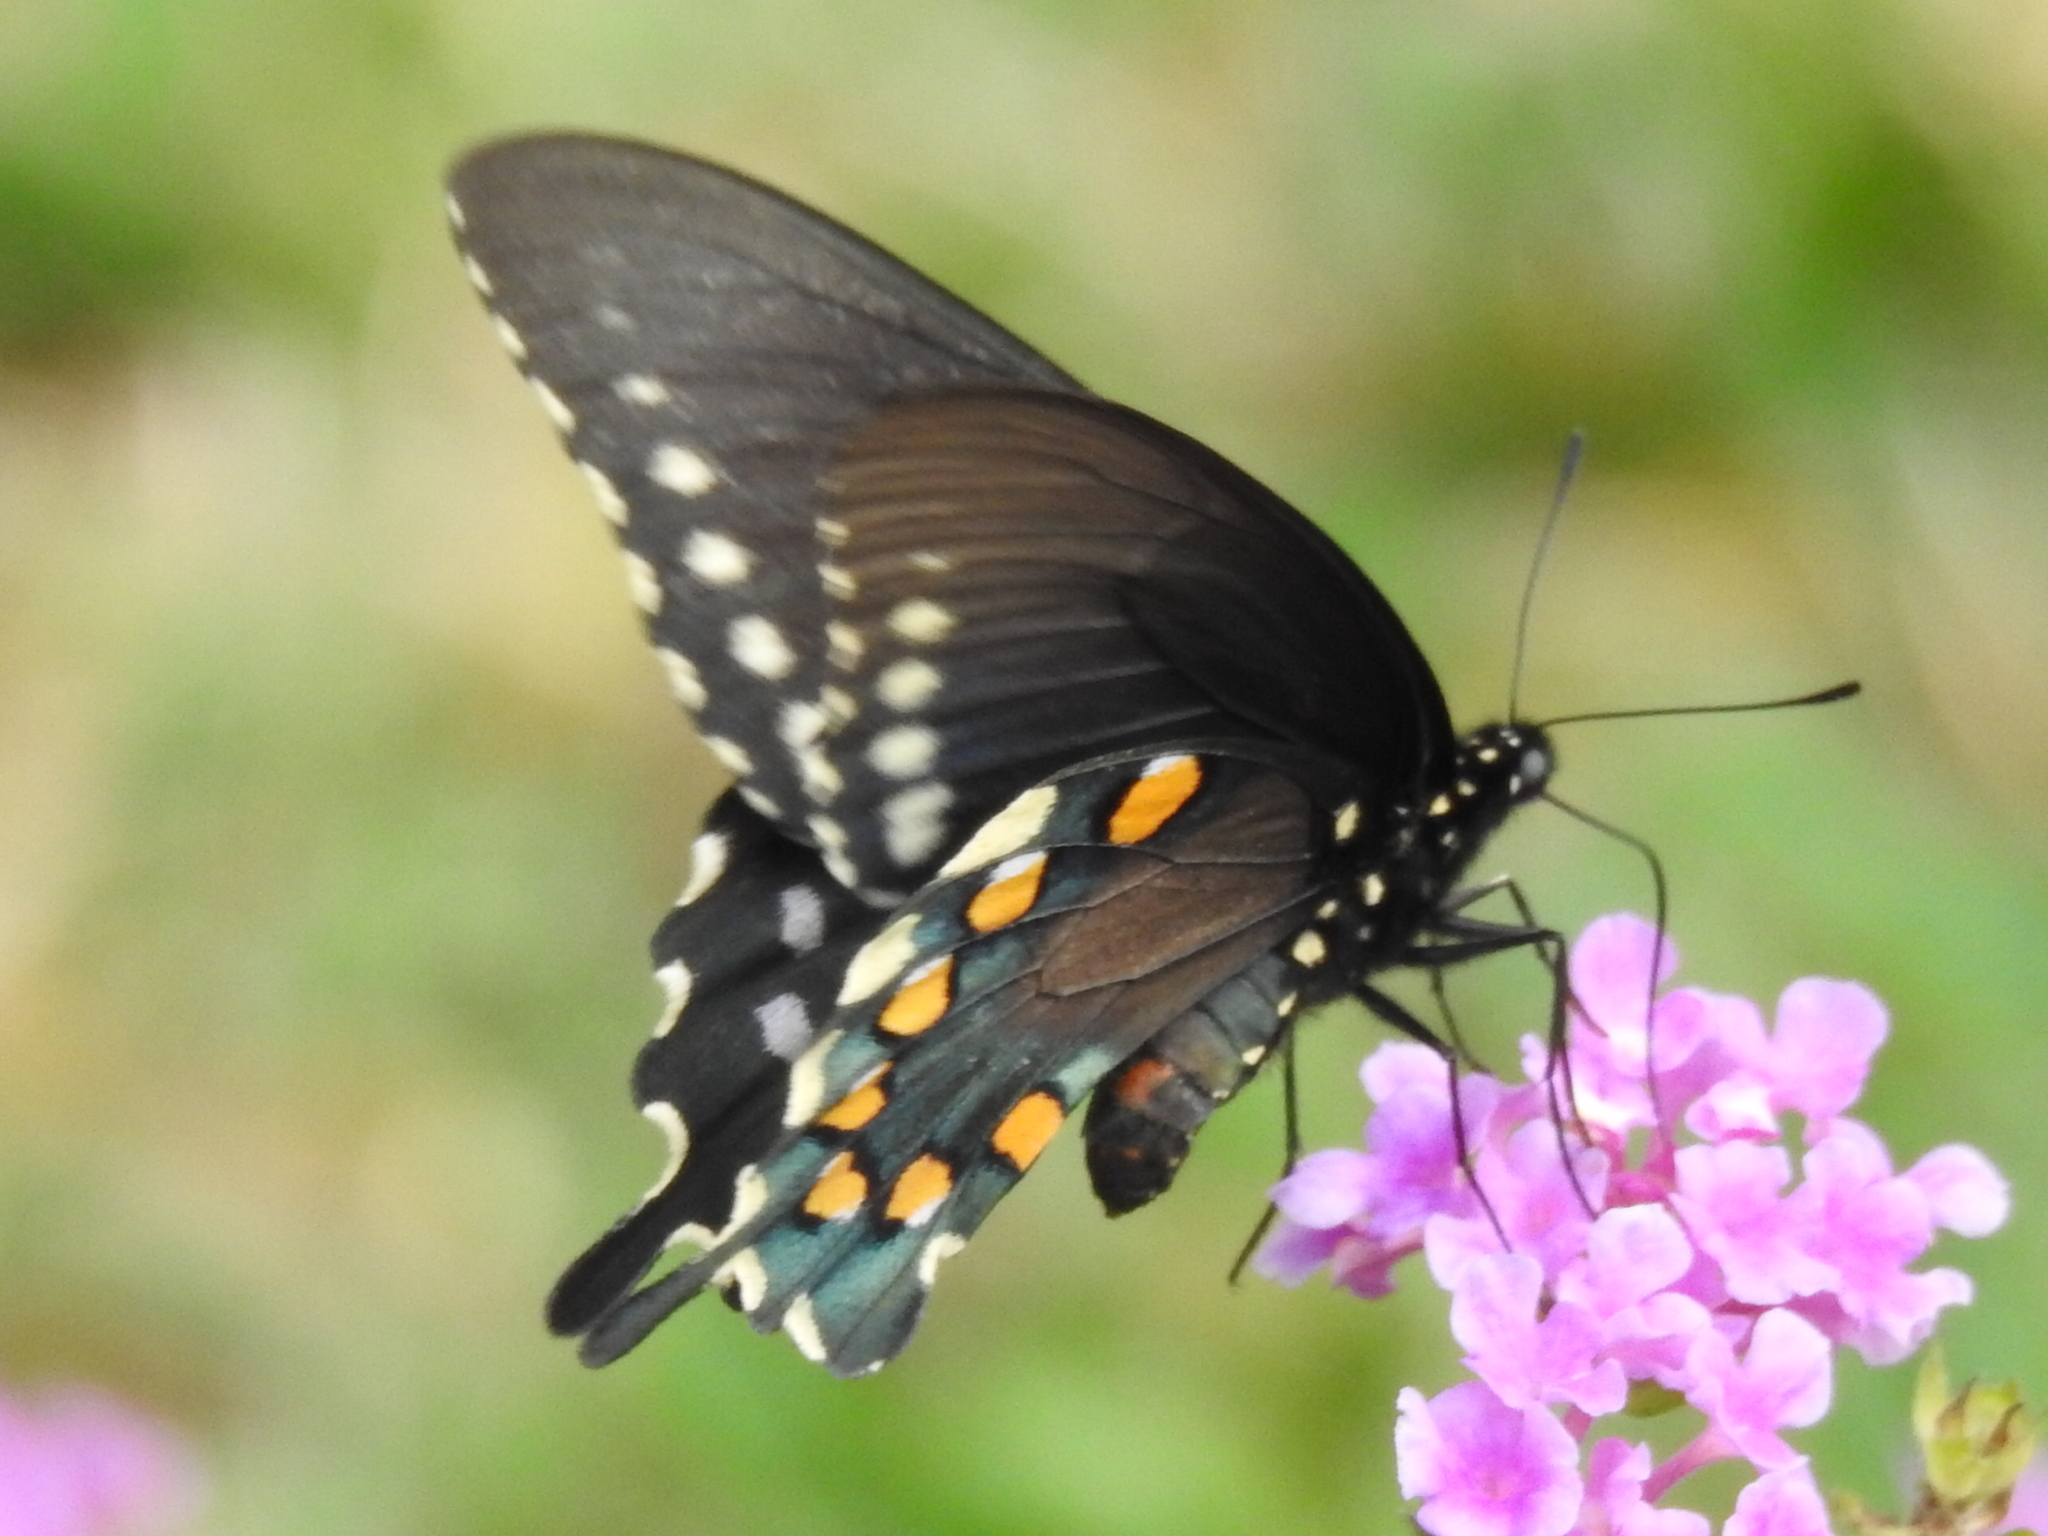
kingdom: Animalia
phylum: Arthropoda
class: Insecta
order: Lepidoptera
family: Papilionidae
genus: Battus
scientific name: Battus philenor
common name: Pipevine swallowtail
